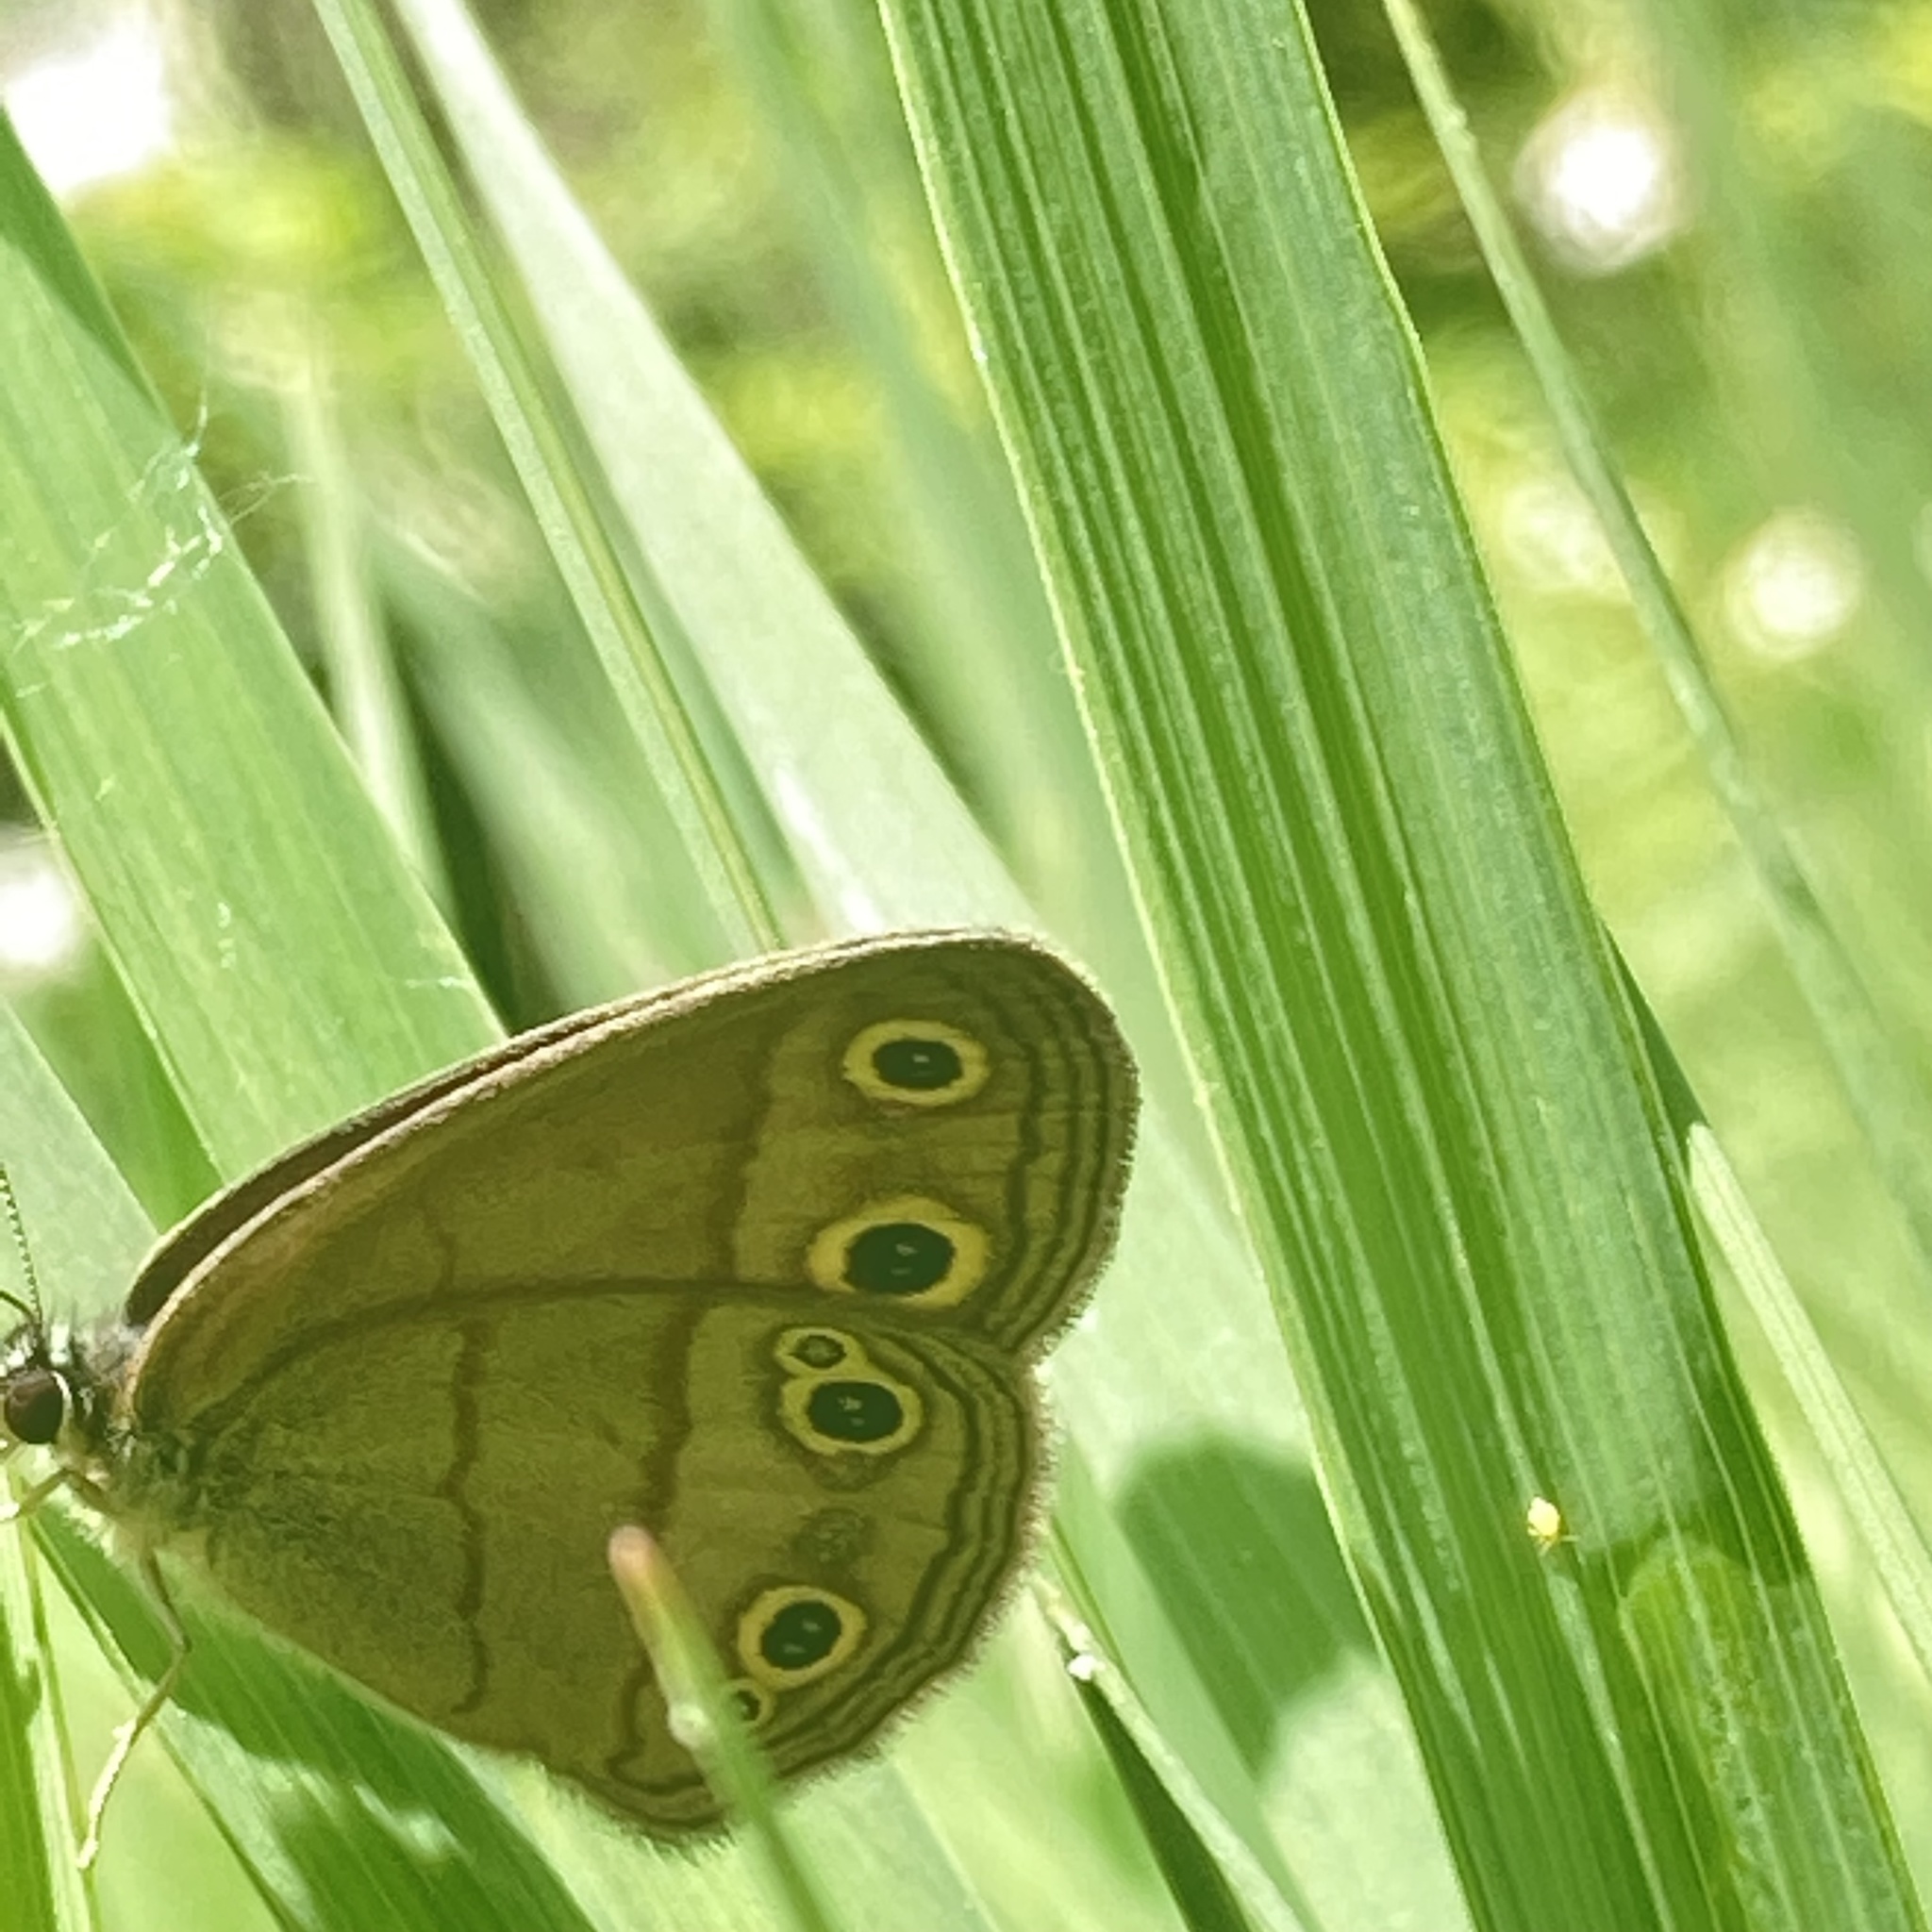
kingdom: Animalia
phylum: Arthropoda
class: Insecta
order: Lepidoptera
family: Nymphalidae
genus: Euptychia
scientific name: Euptychia cymela
